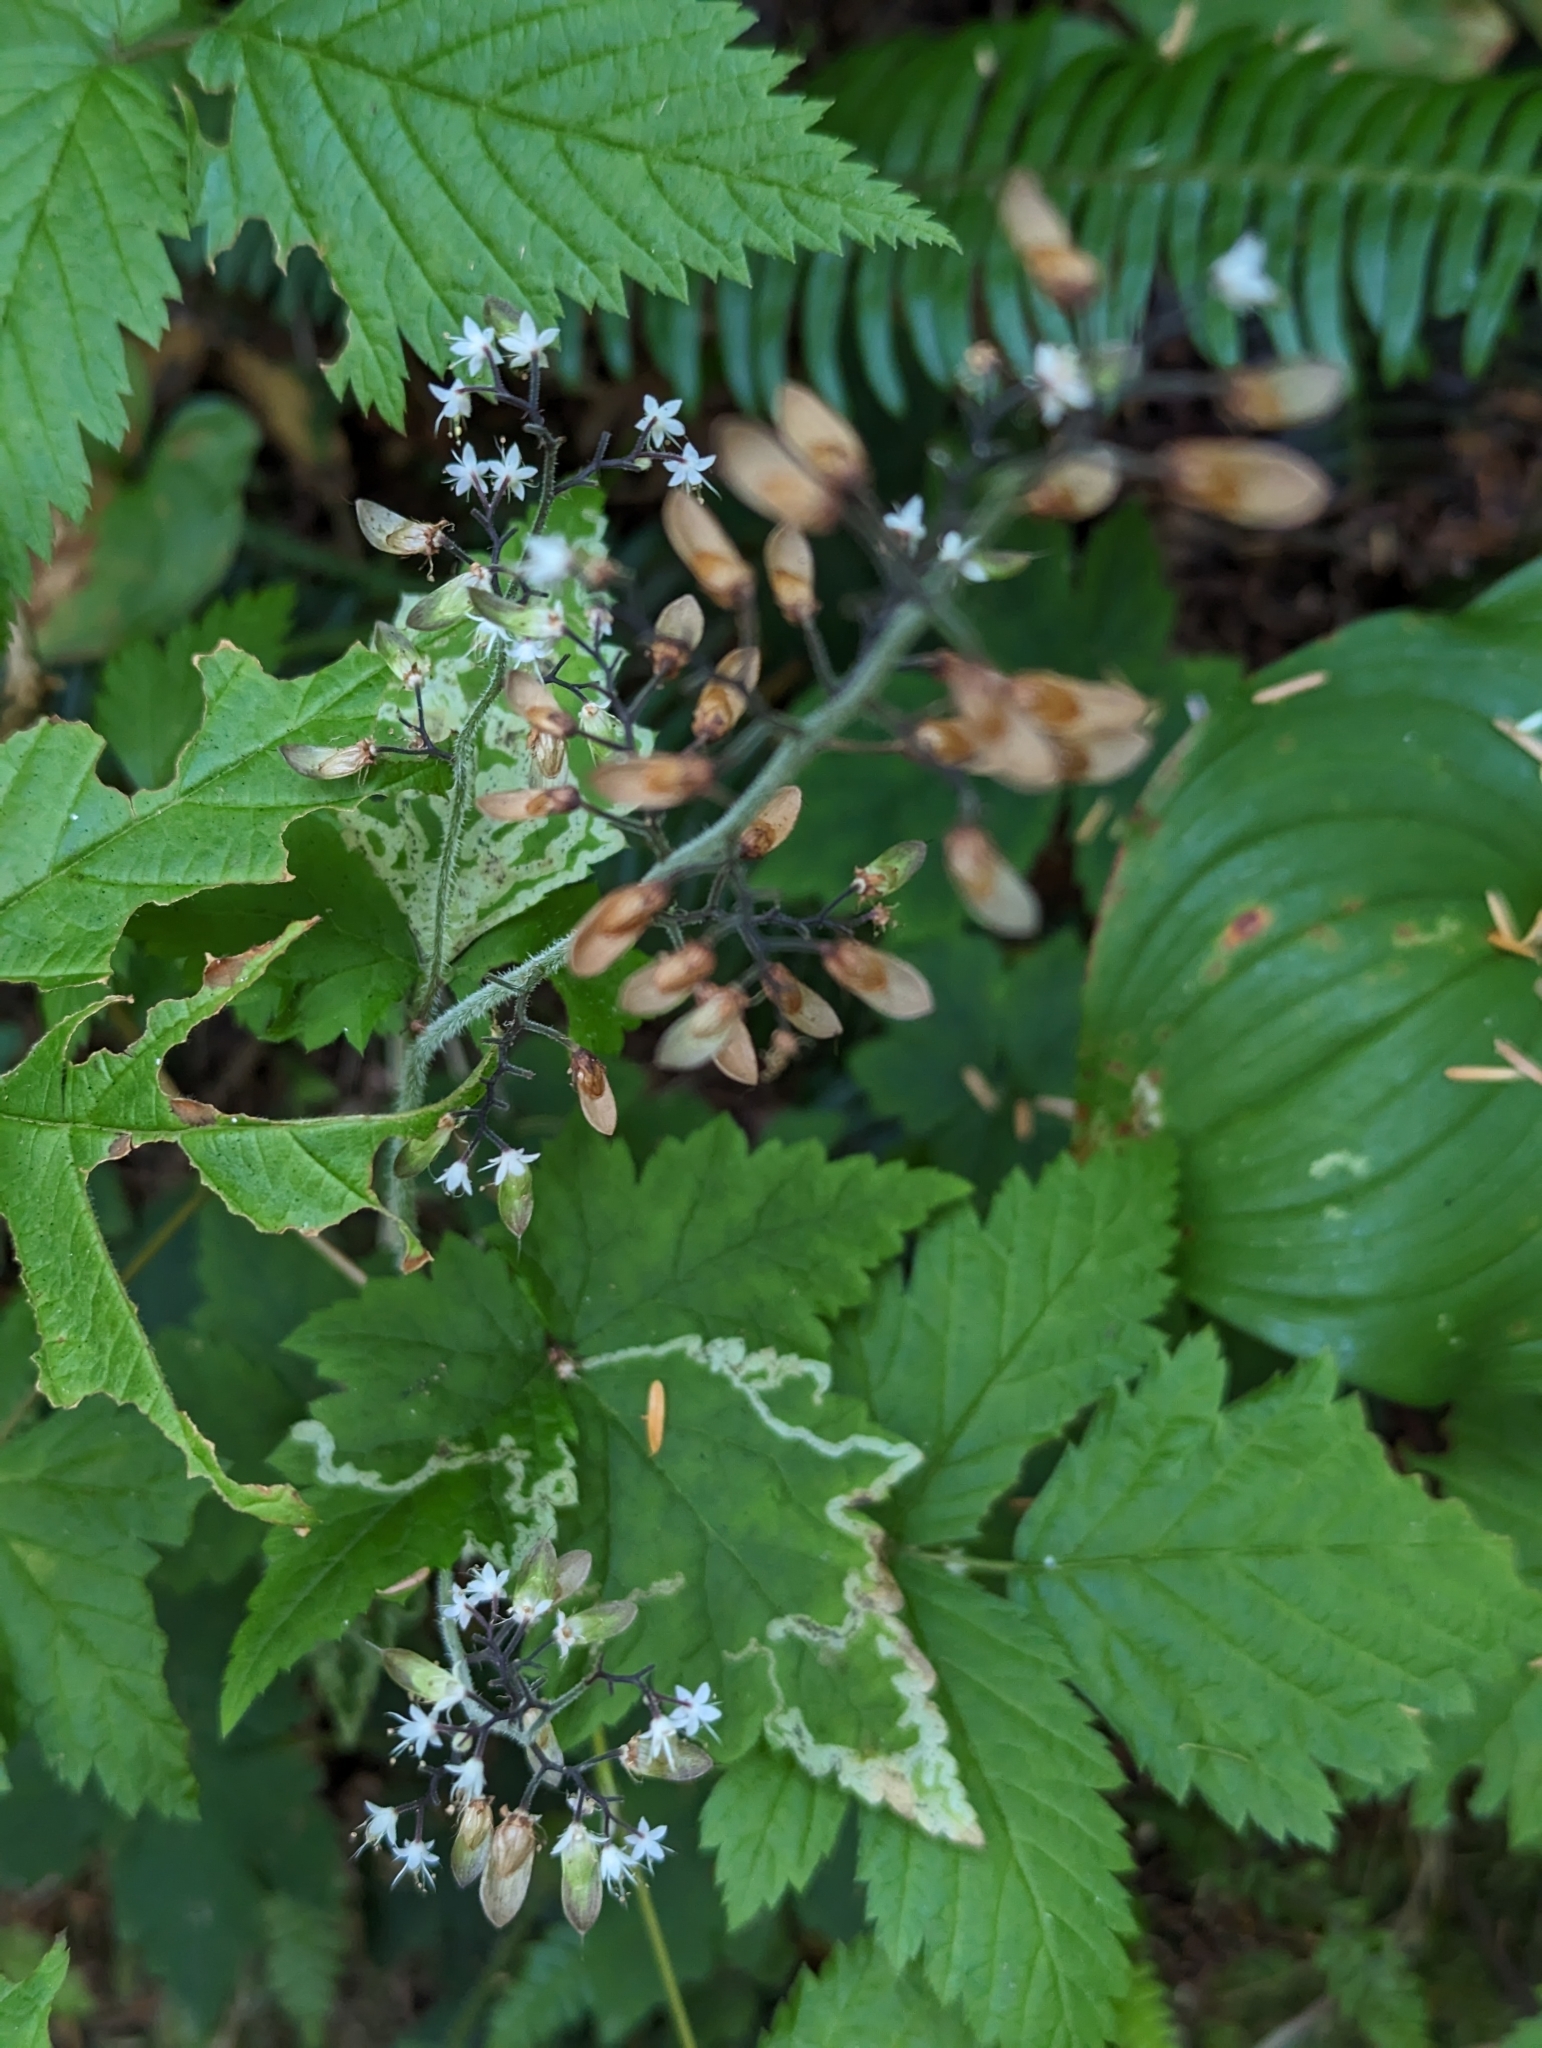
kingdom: Plantae
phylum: Tracheophyta
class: Magnoliopsida
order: Saxifragales
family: Saxifragaceae
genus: Tiarella
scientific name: Tiarella trifoliata
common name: Sugar-scoop
